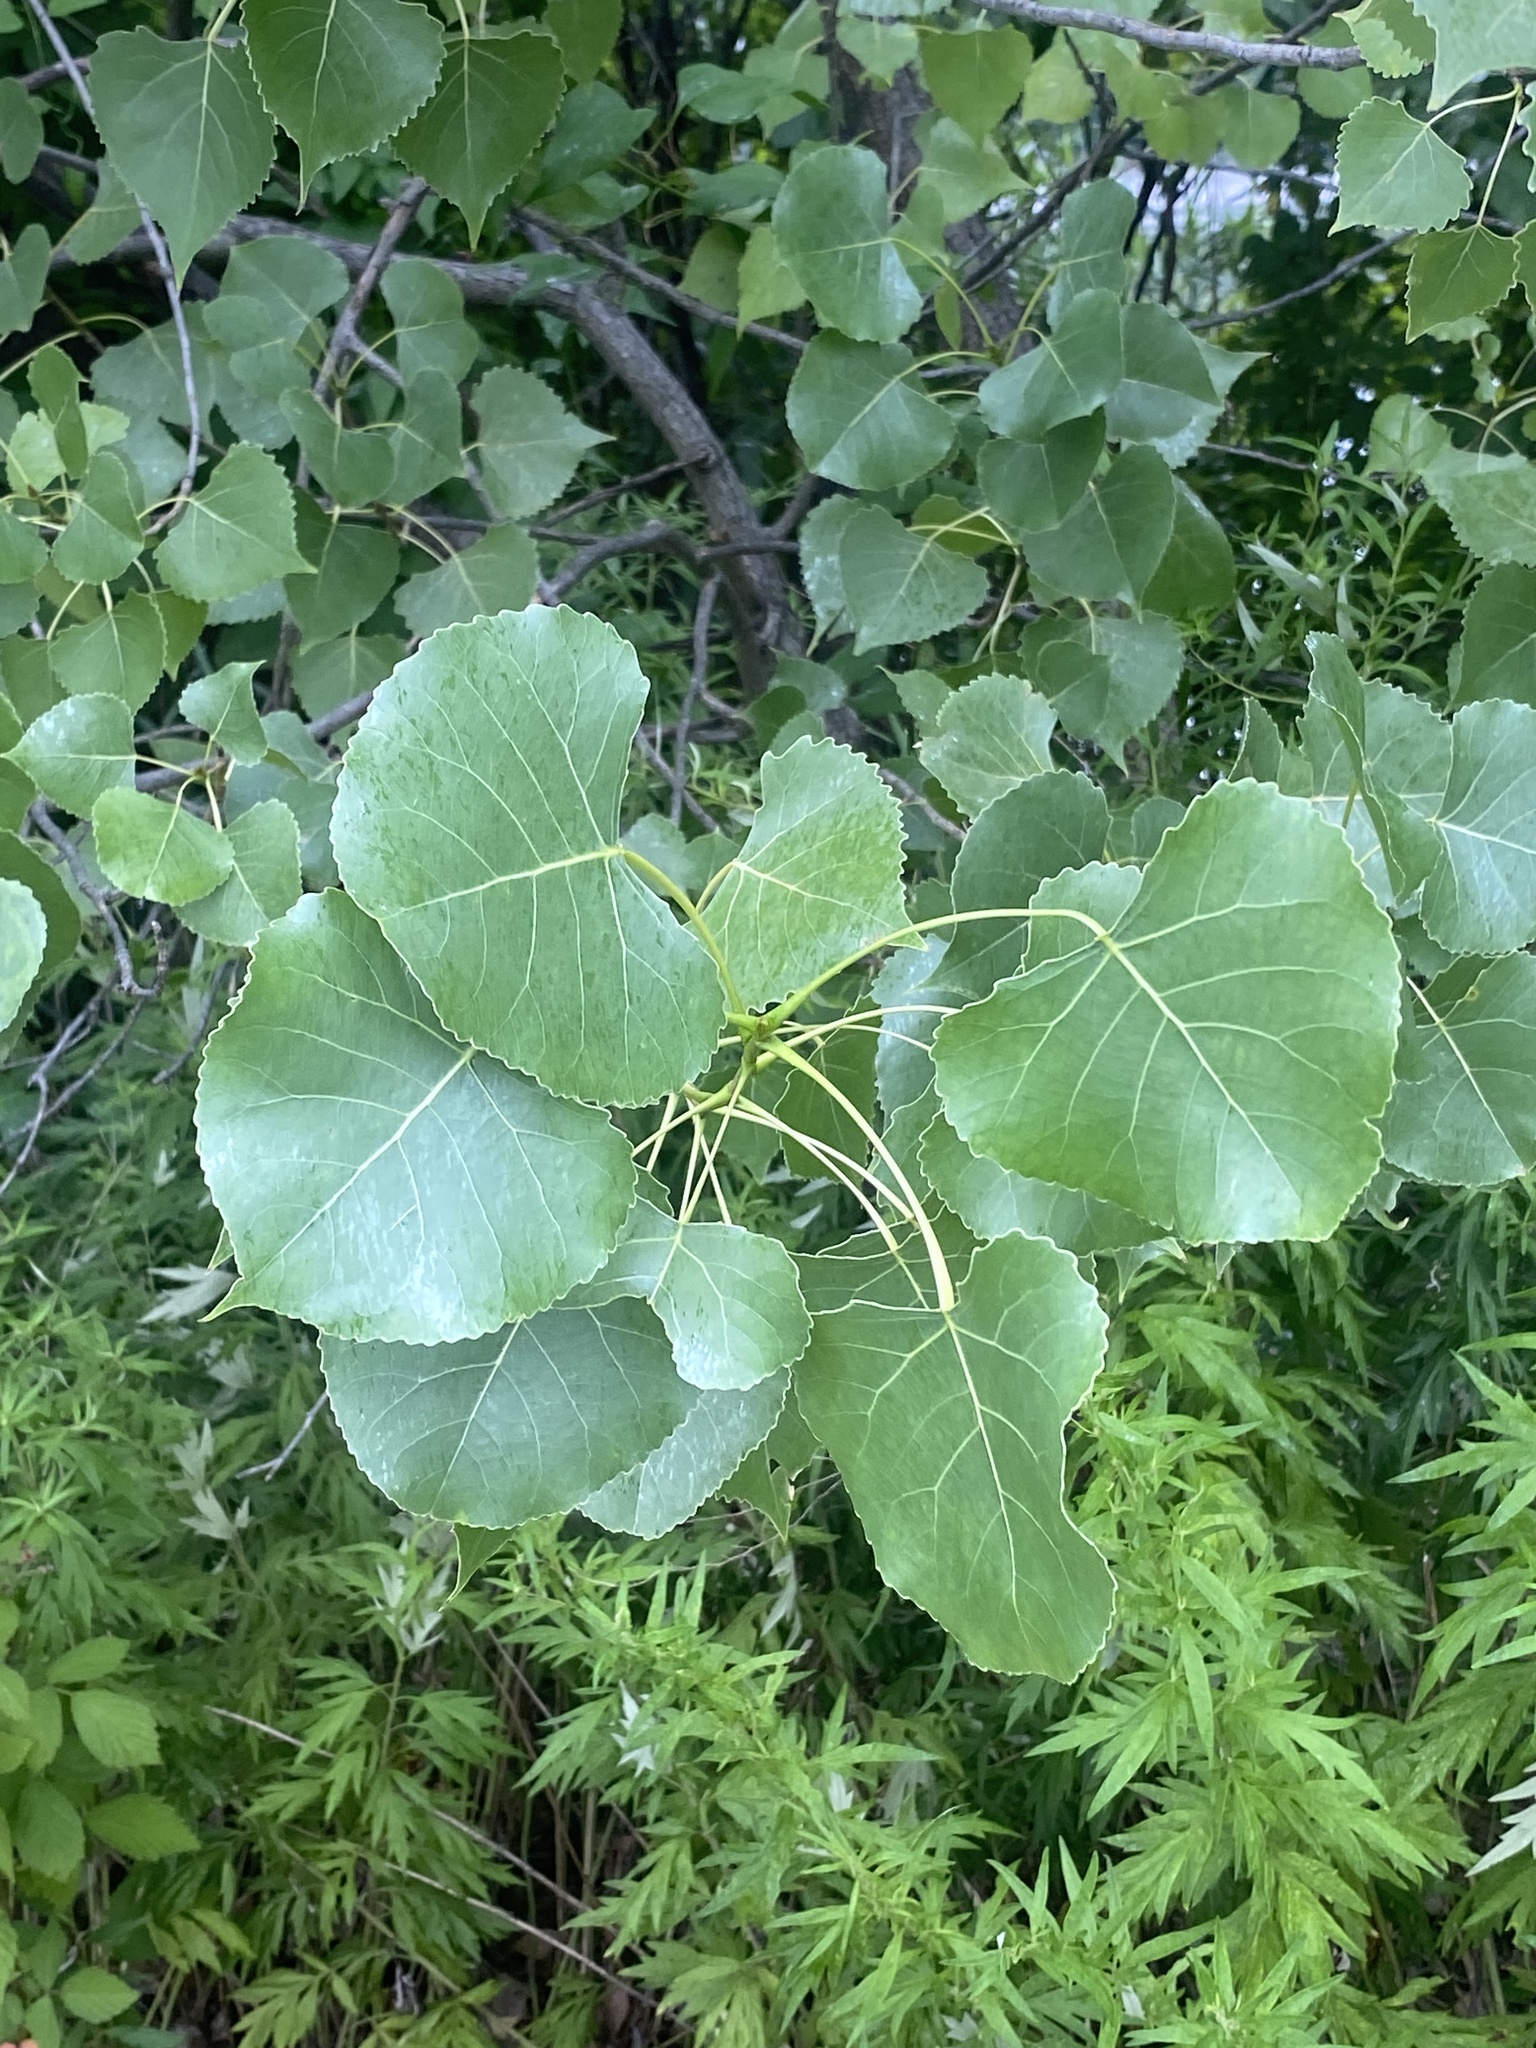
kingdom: Plantae
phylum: Tracheophyta
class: Magnoliopsida
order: Malpighiales
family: Salicaceae
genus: Populus
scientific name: Populus deltoides
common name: Eastern cottonwood
